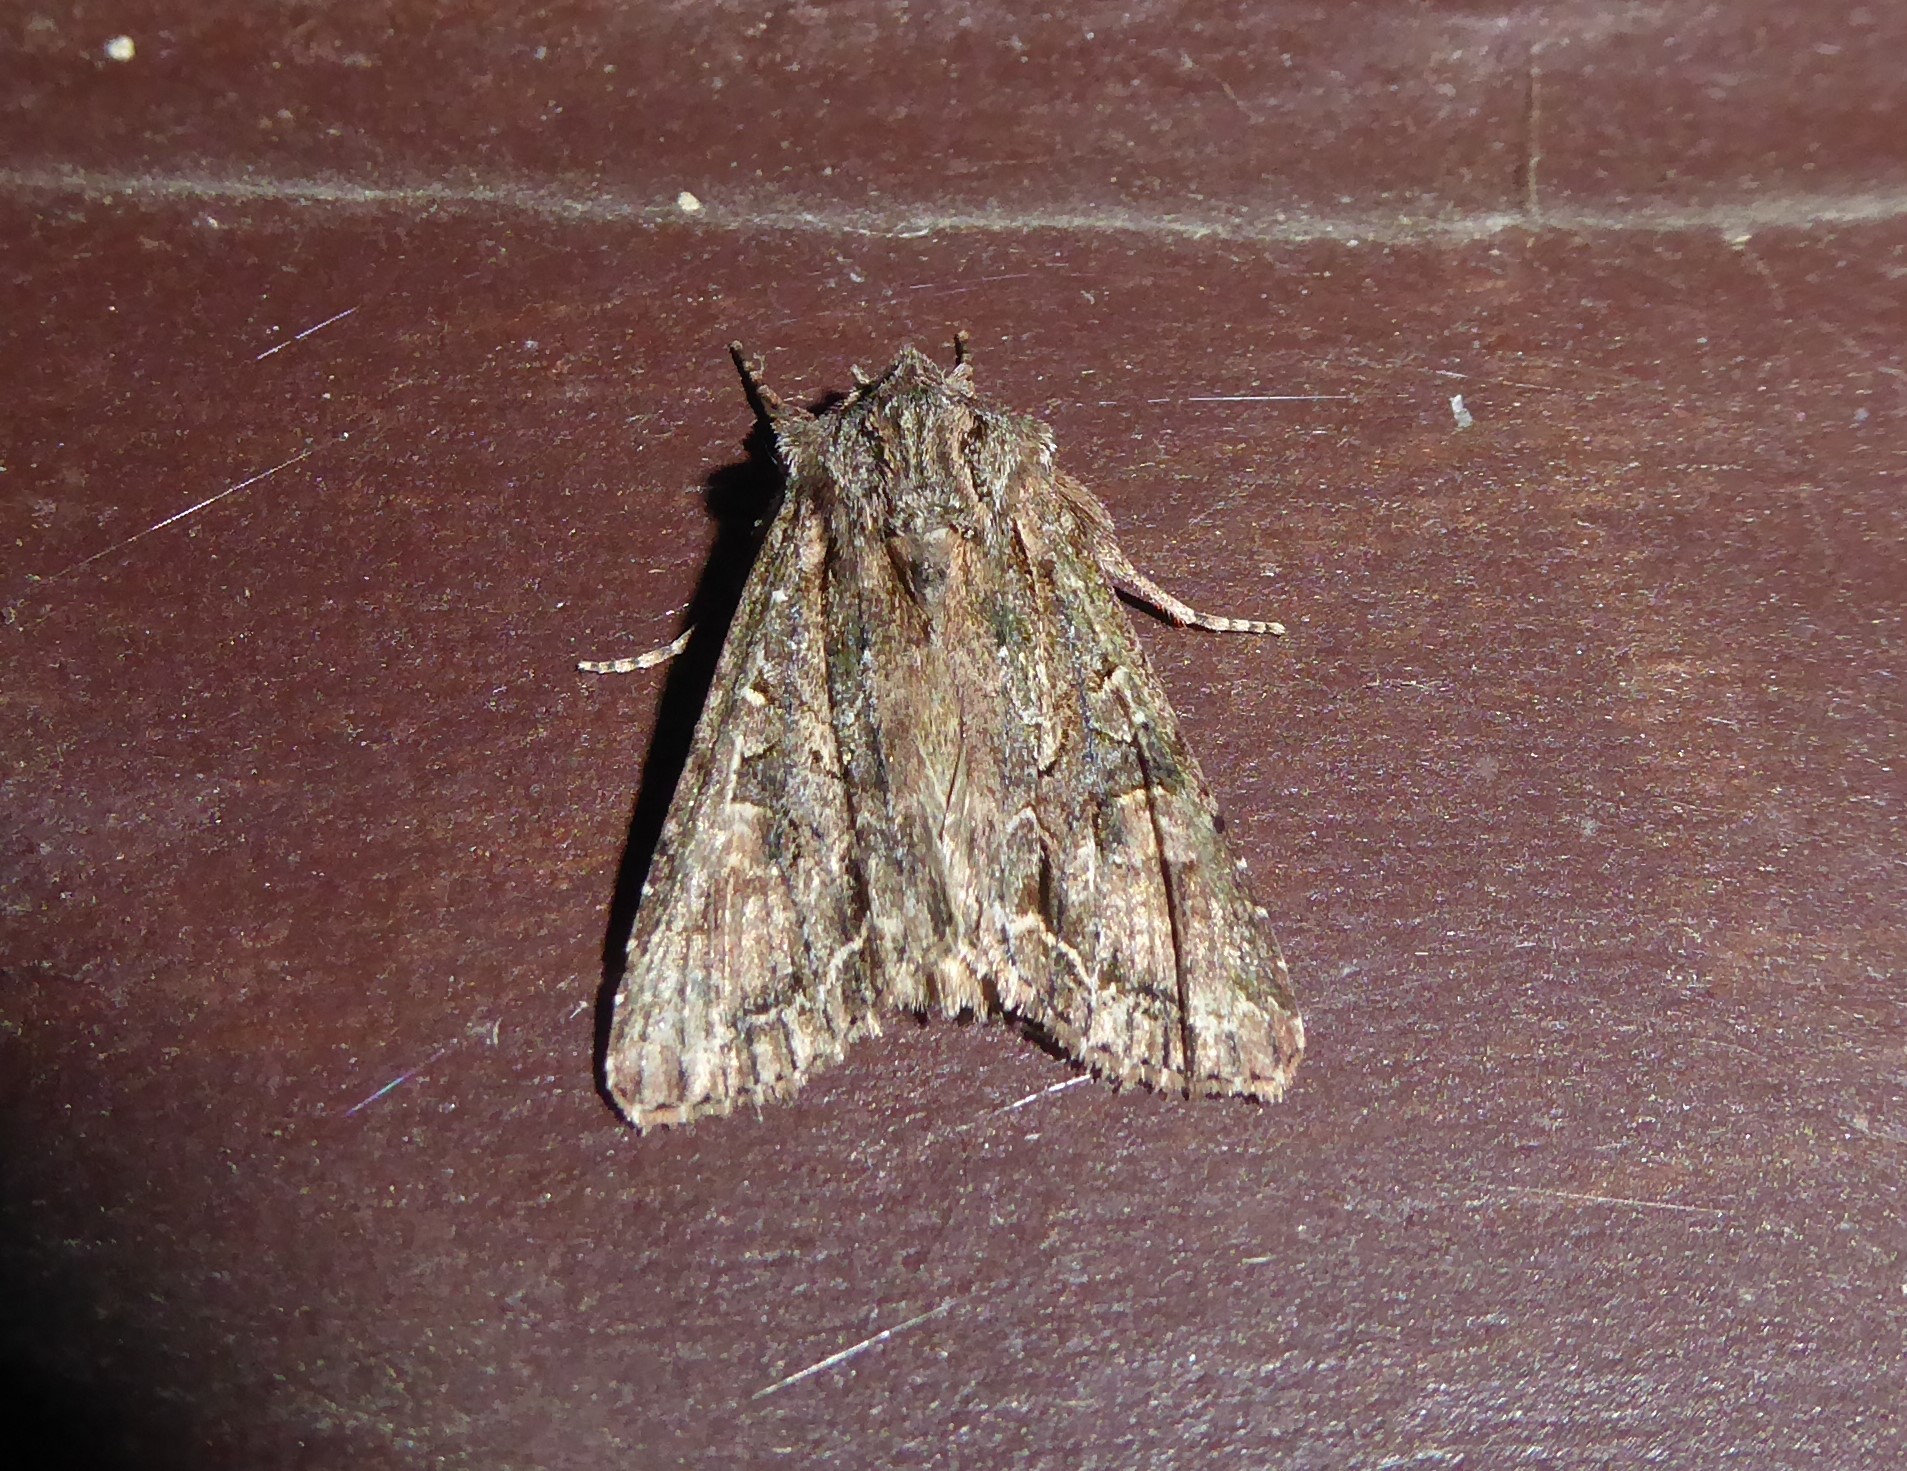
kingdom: Animalia
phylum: Arthropoda
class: Insecta
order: Lepidoptera
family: Noctuidae
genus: Ichneutica
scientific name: Ichneutica mutans
